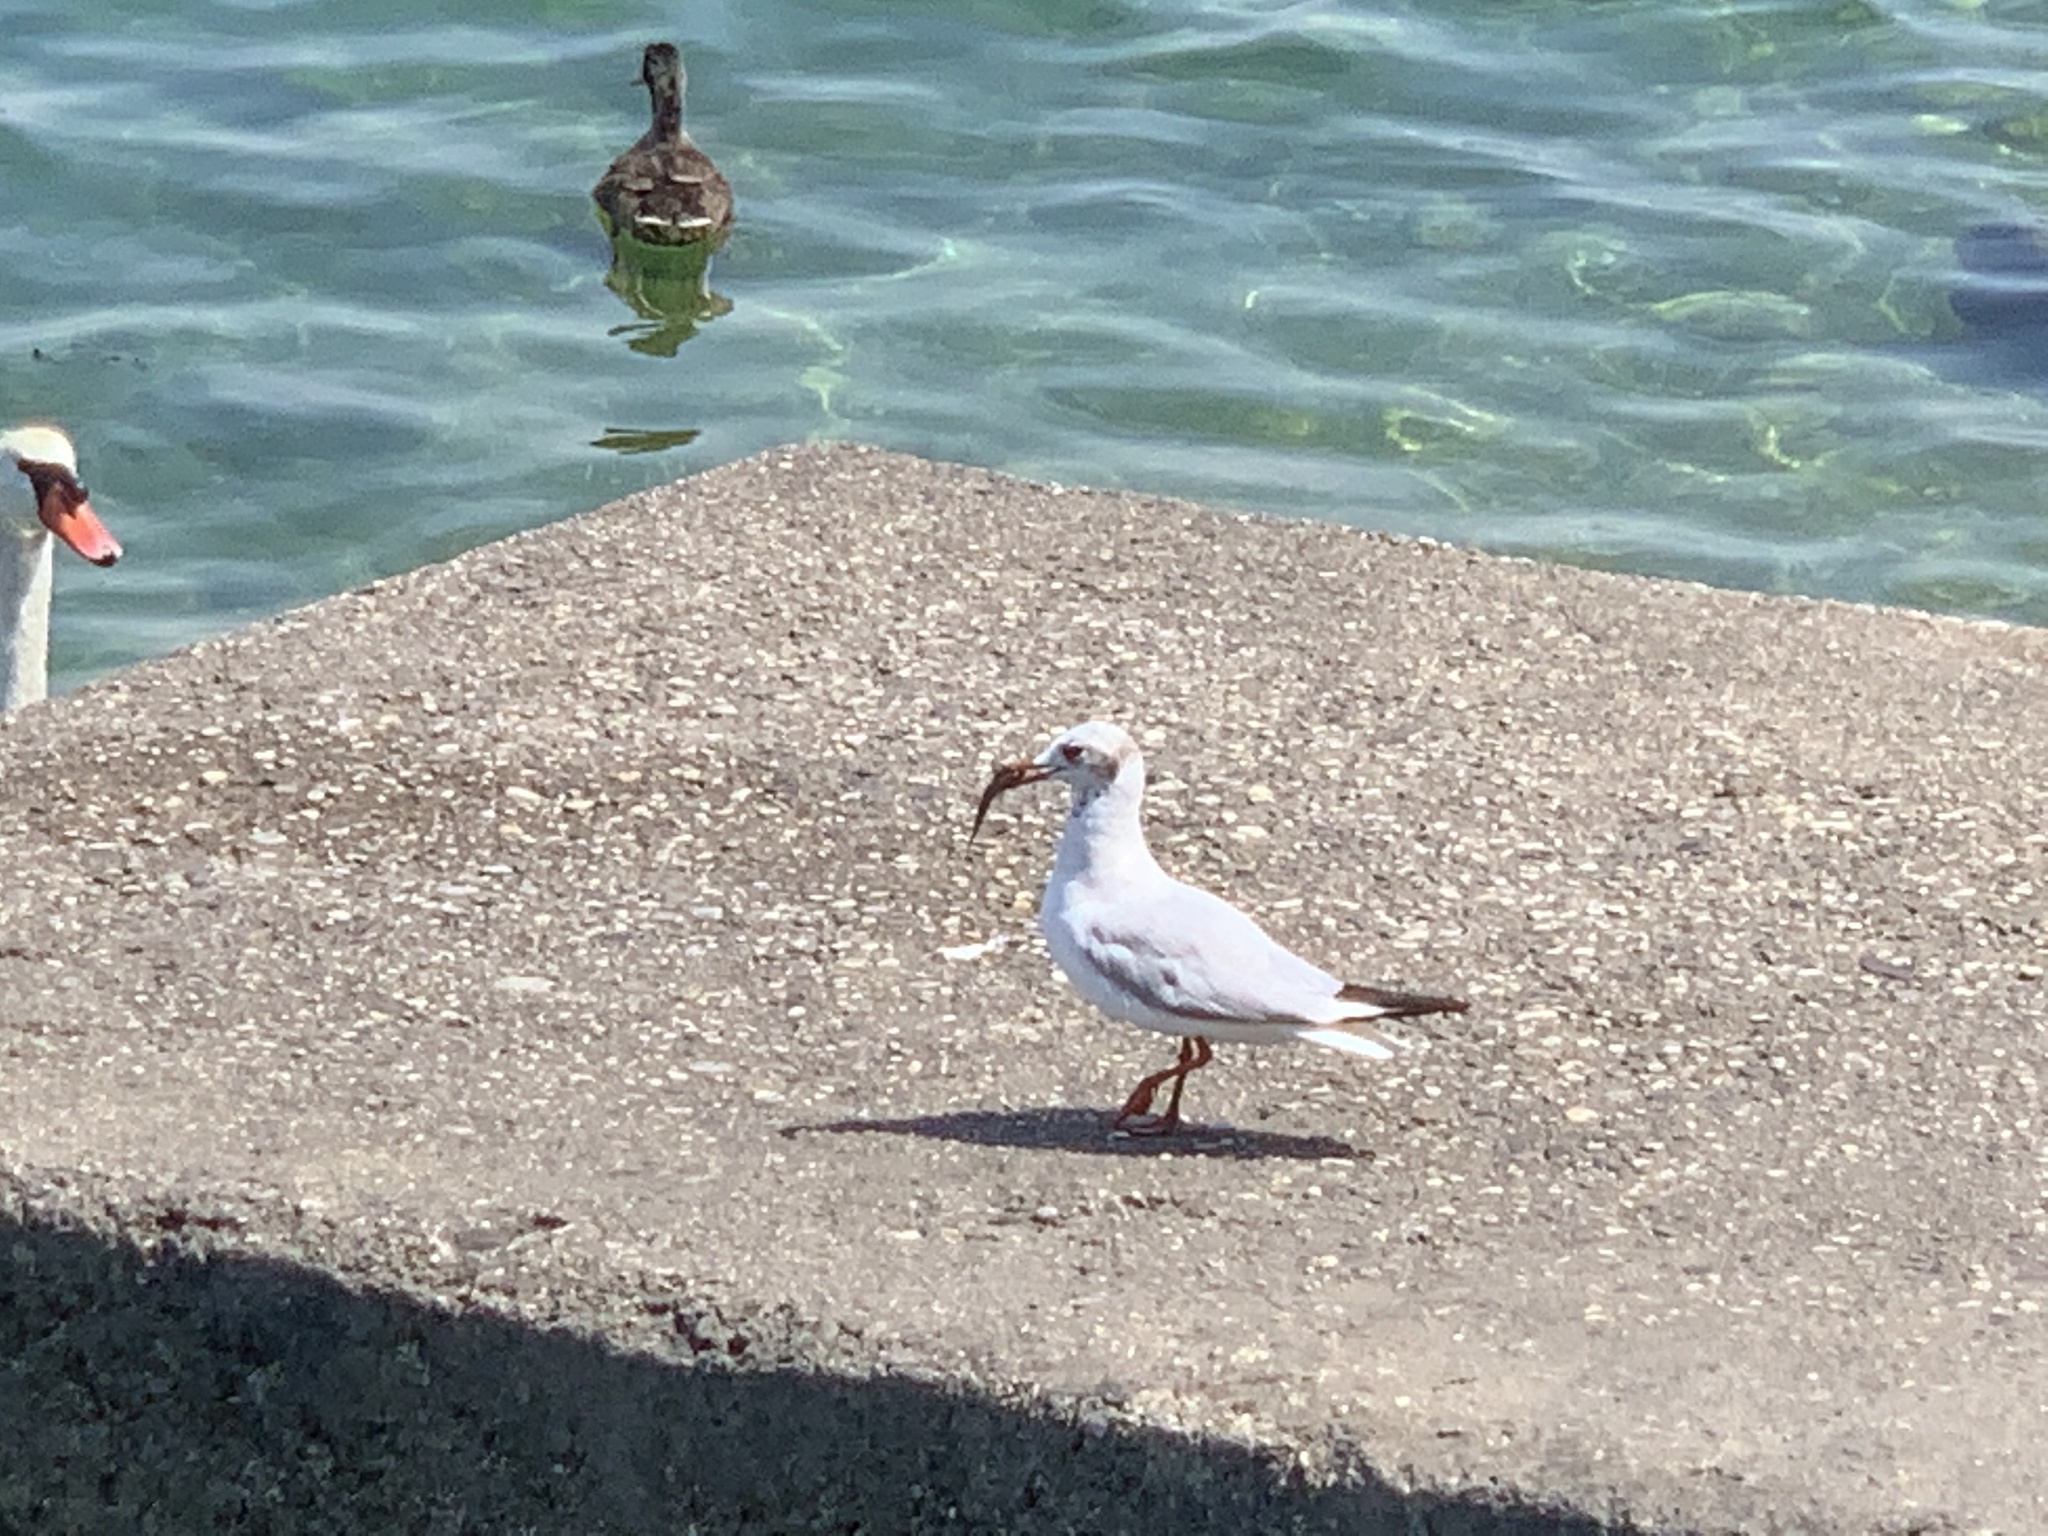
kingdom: Animalia
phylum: Chordata
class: Aves
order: Charadriiformes
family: Laridae
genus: Chroicocephalus
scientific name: Chroicocephalus ridibundus
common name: Black-headed gull
